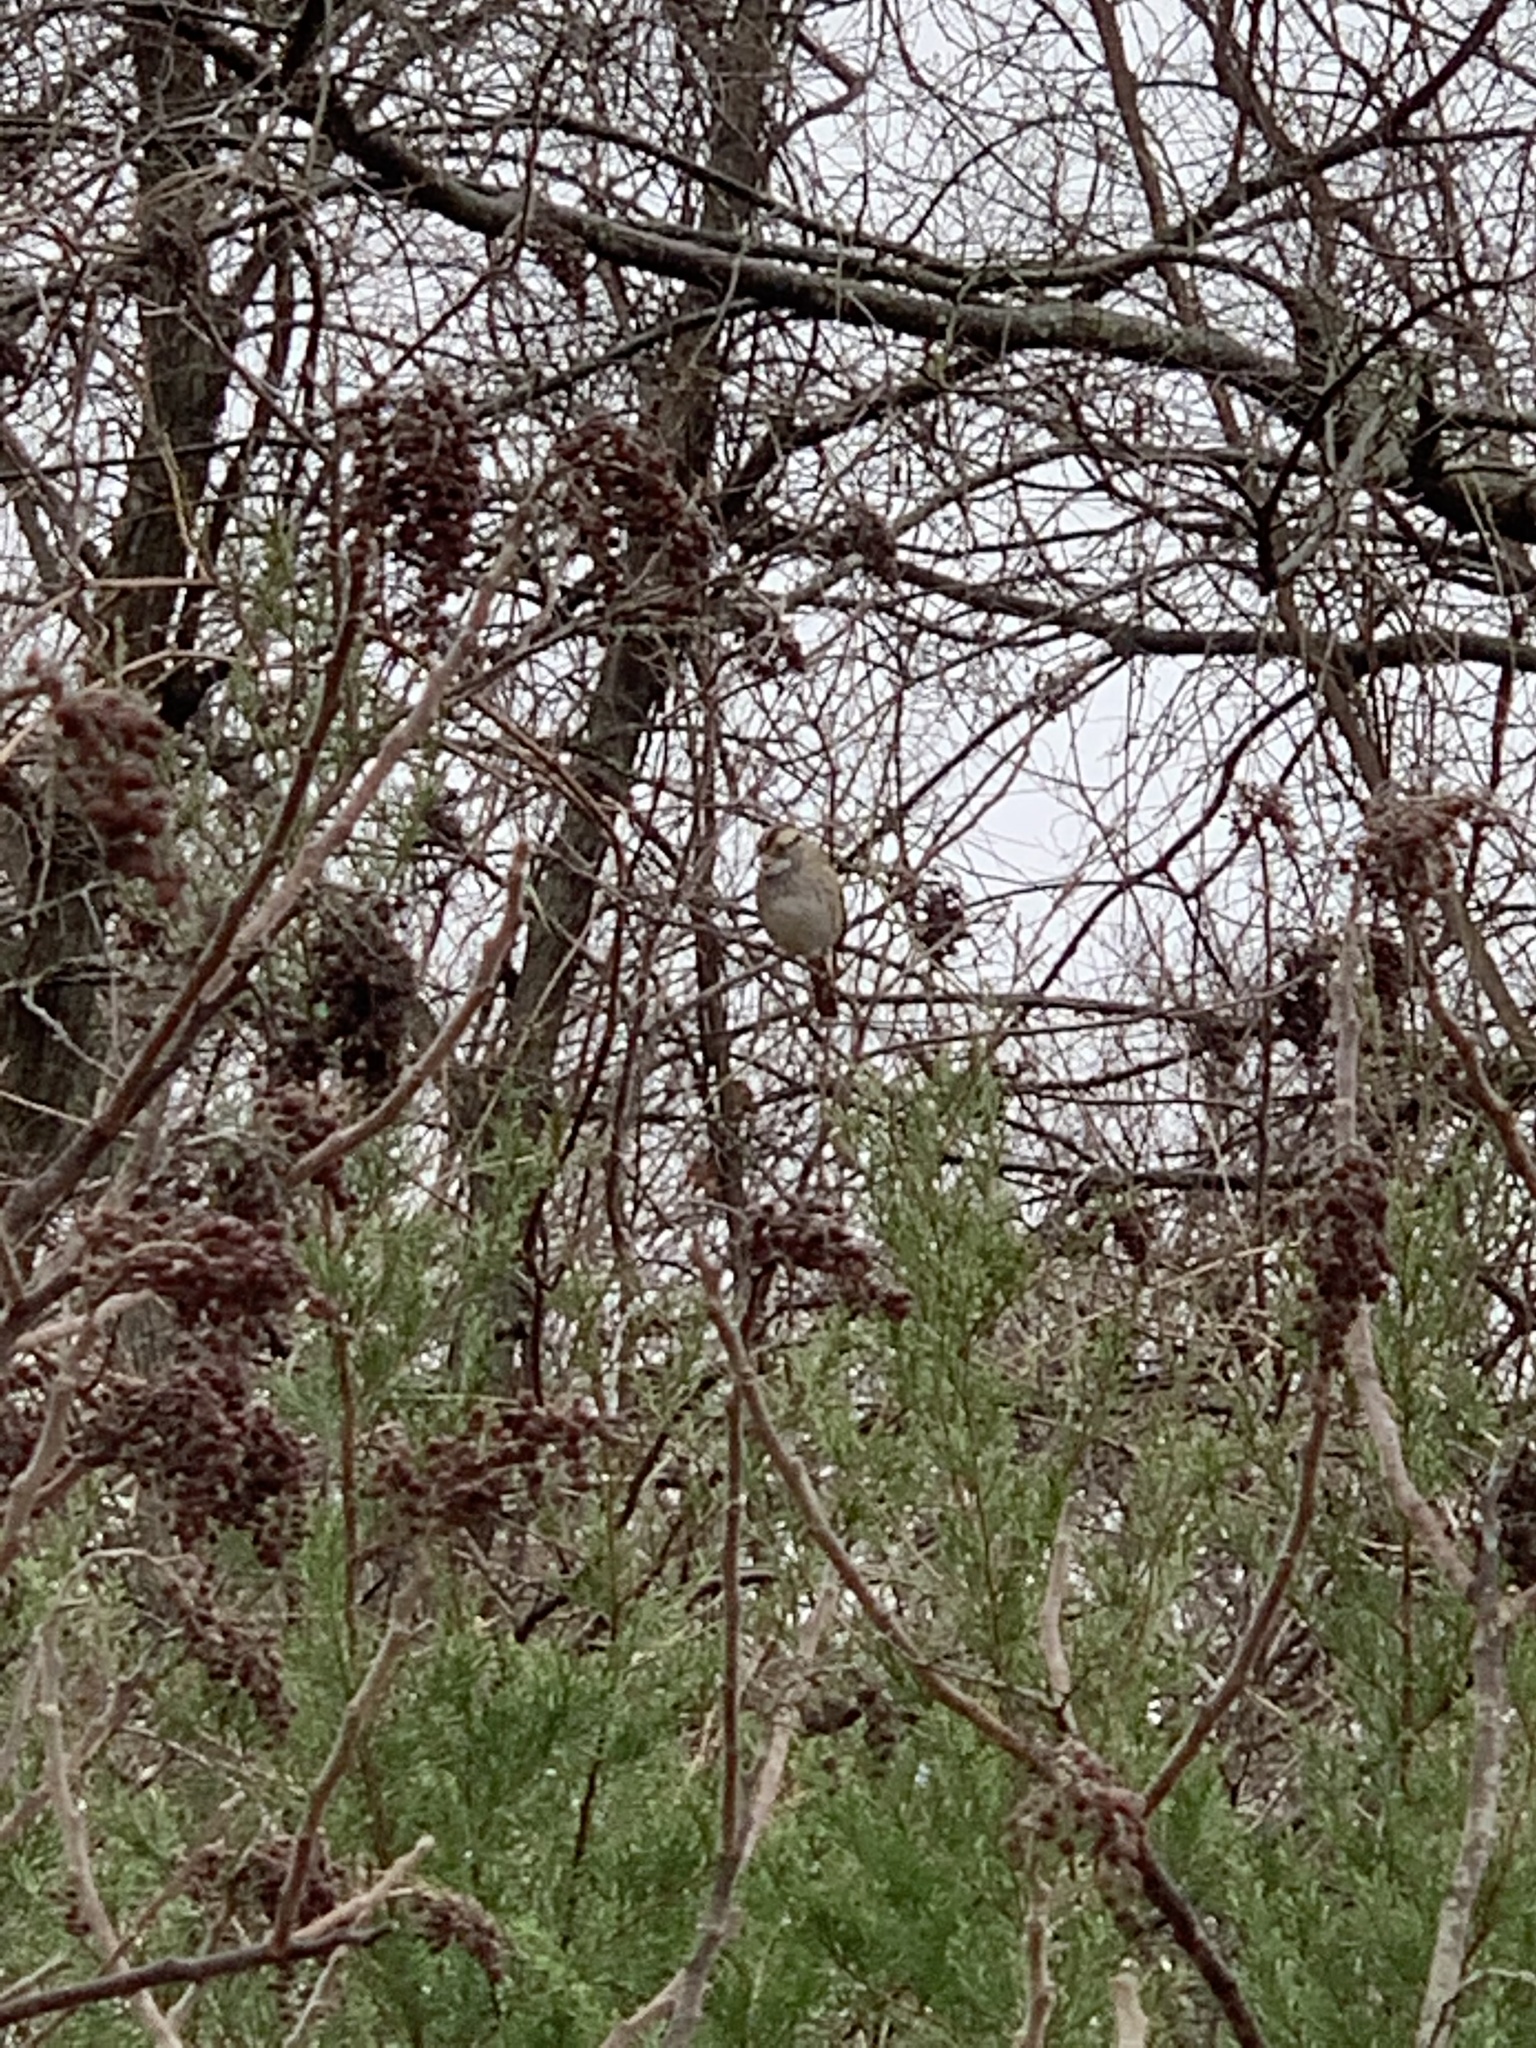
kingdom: Animalia
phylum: Chordata
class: Aves
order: Passeriformes
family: Passerellidae
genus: Zonotrichia
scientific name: Zonotrichia albicollis
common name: White-throated sparrow
